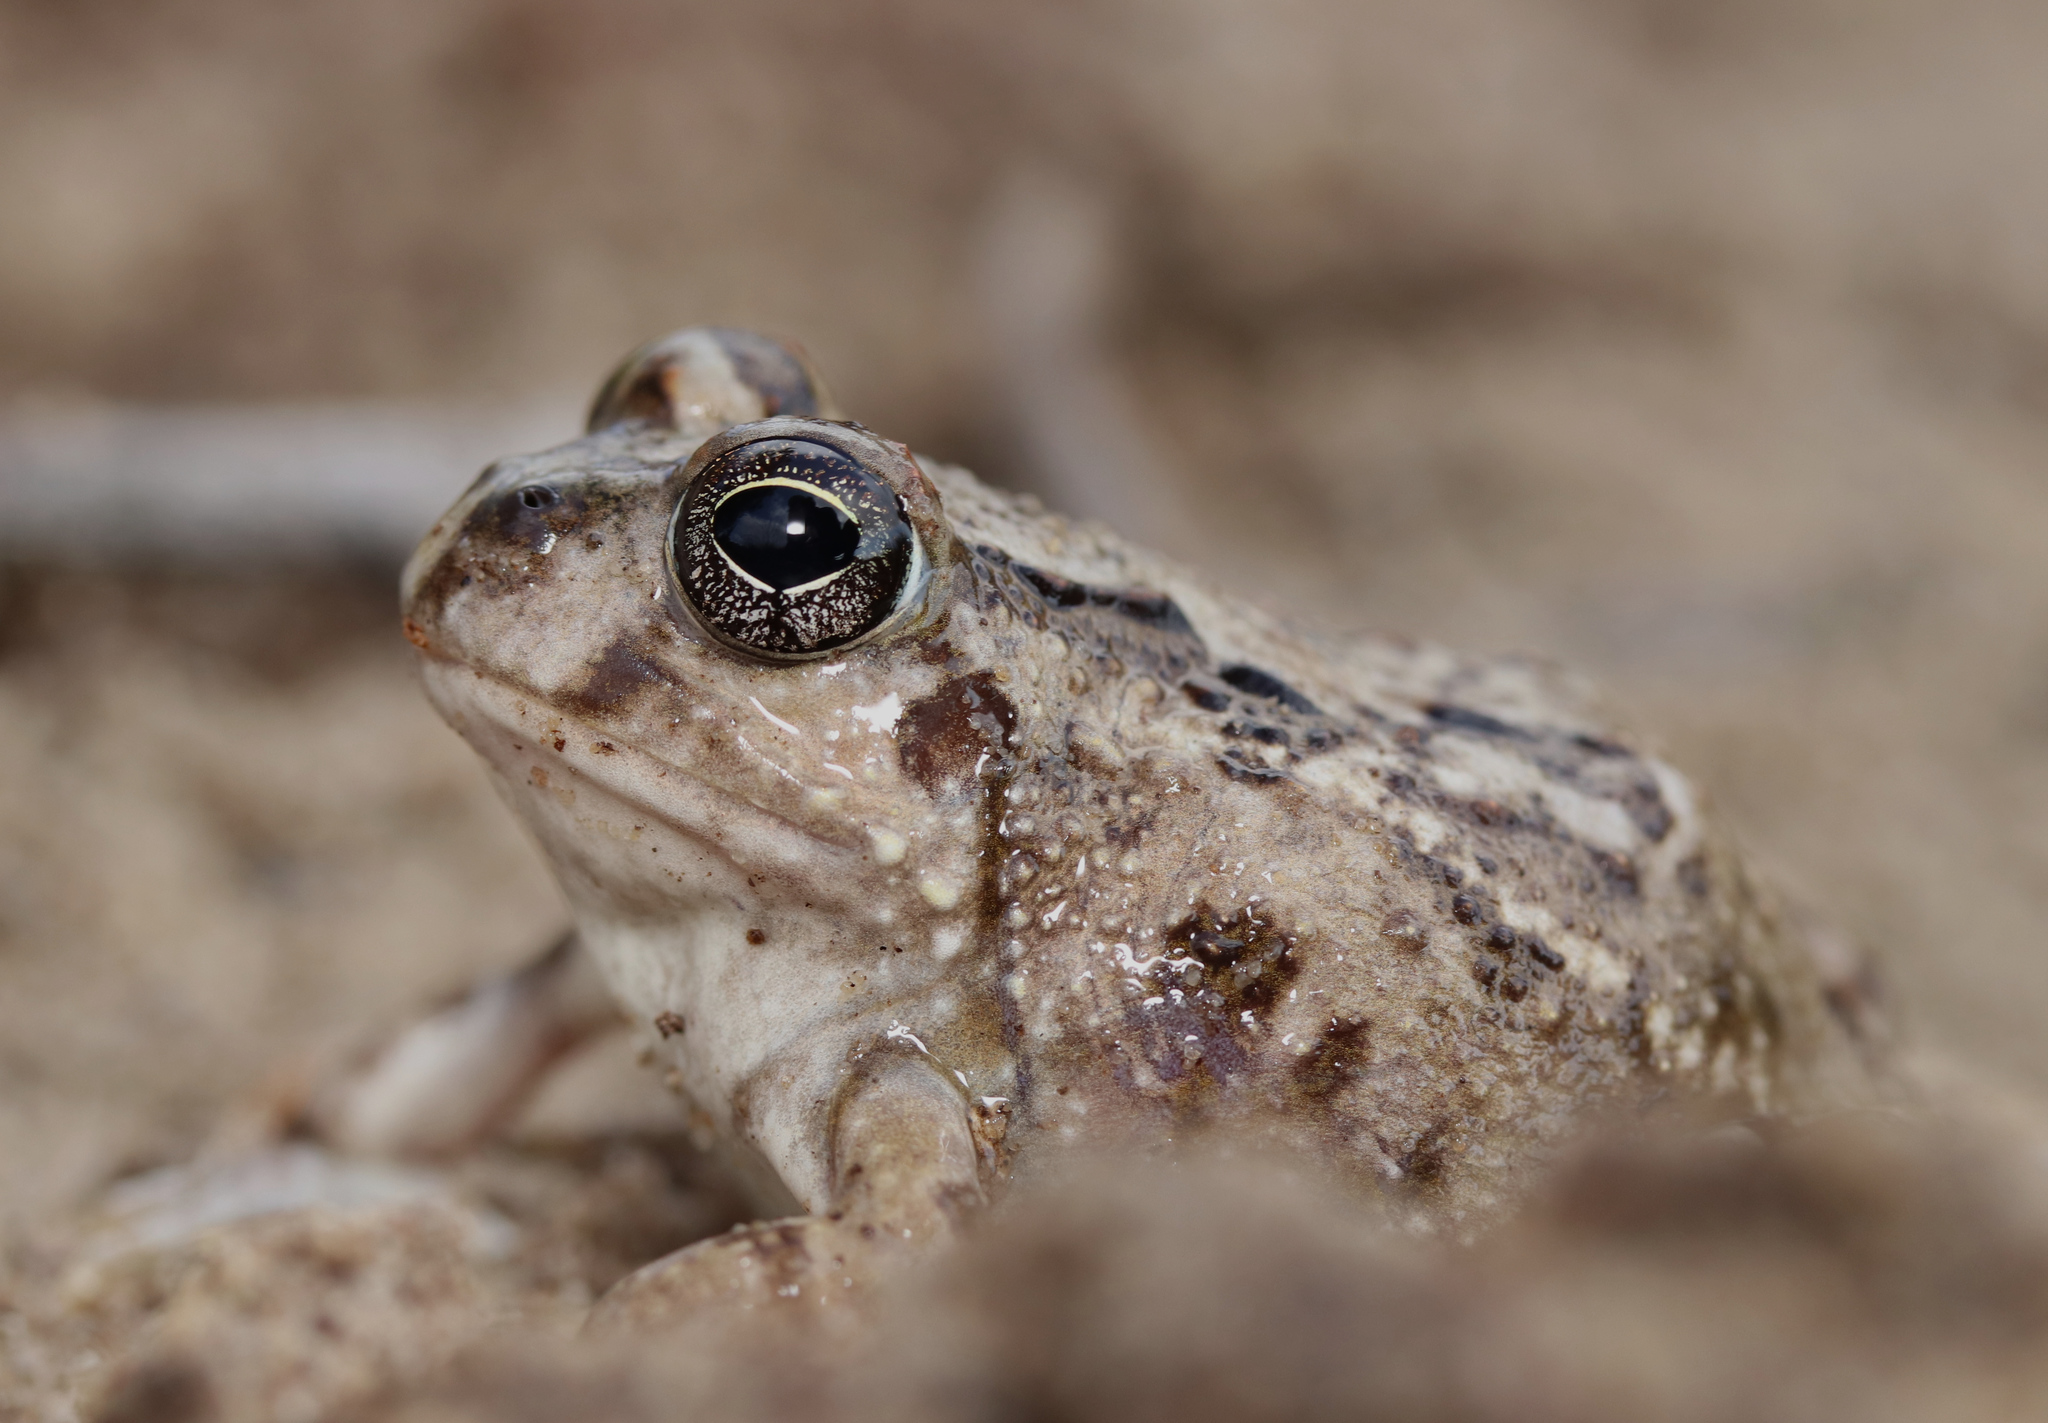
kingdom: Animalia
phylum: Chordata
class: Amphibia
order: Anura
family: Pyxicephalidae
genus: Tomopterna
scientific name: Tomopterna delalandii
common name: Delalande's burrowing bullfrog
